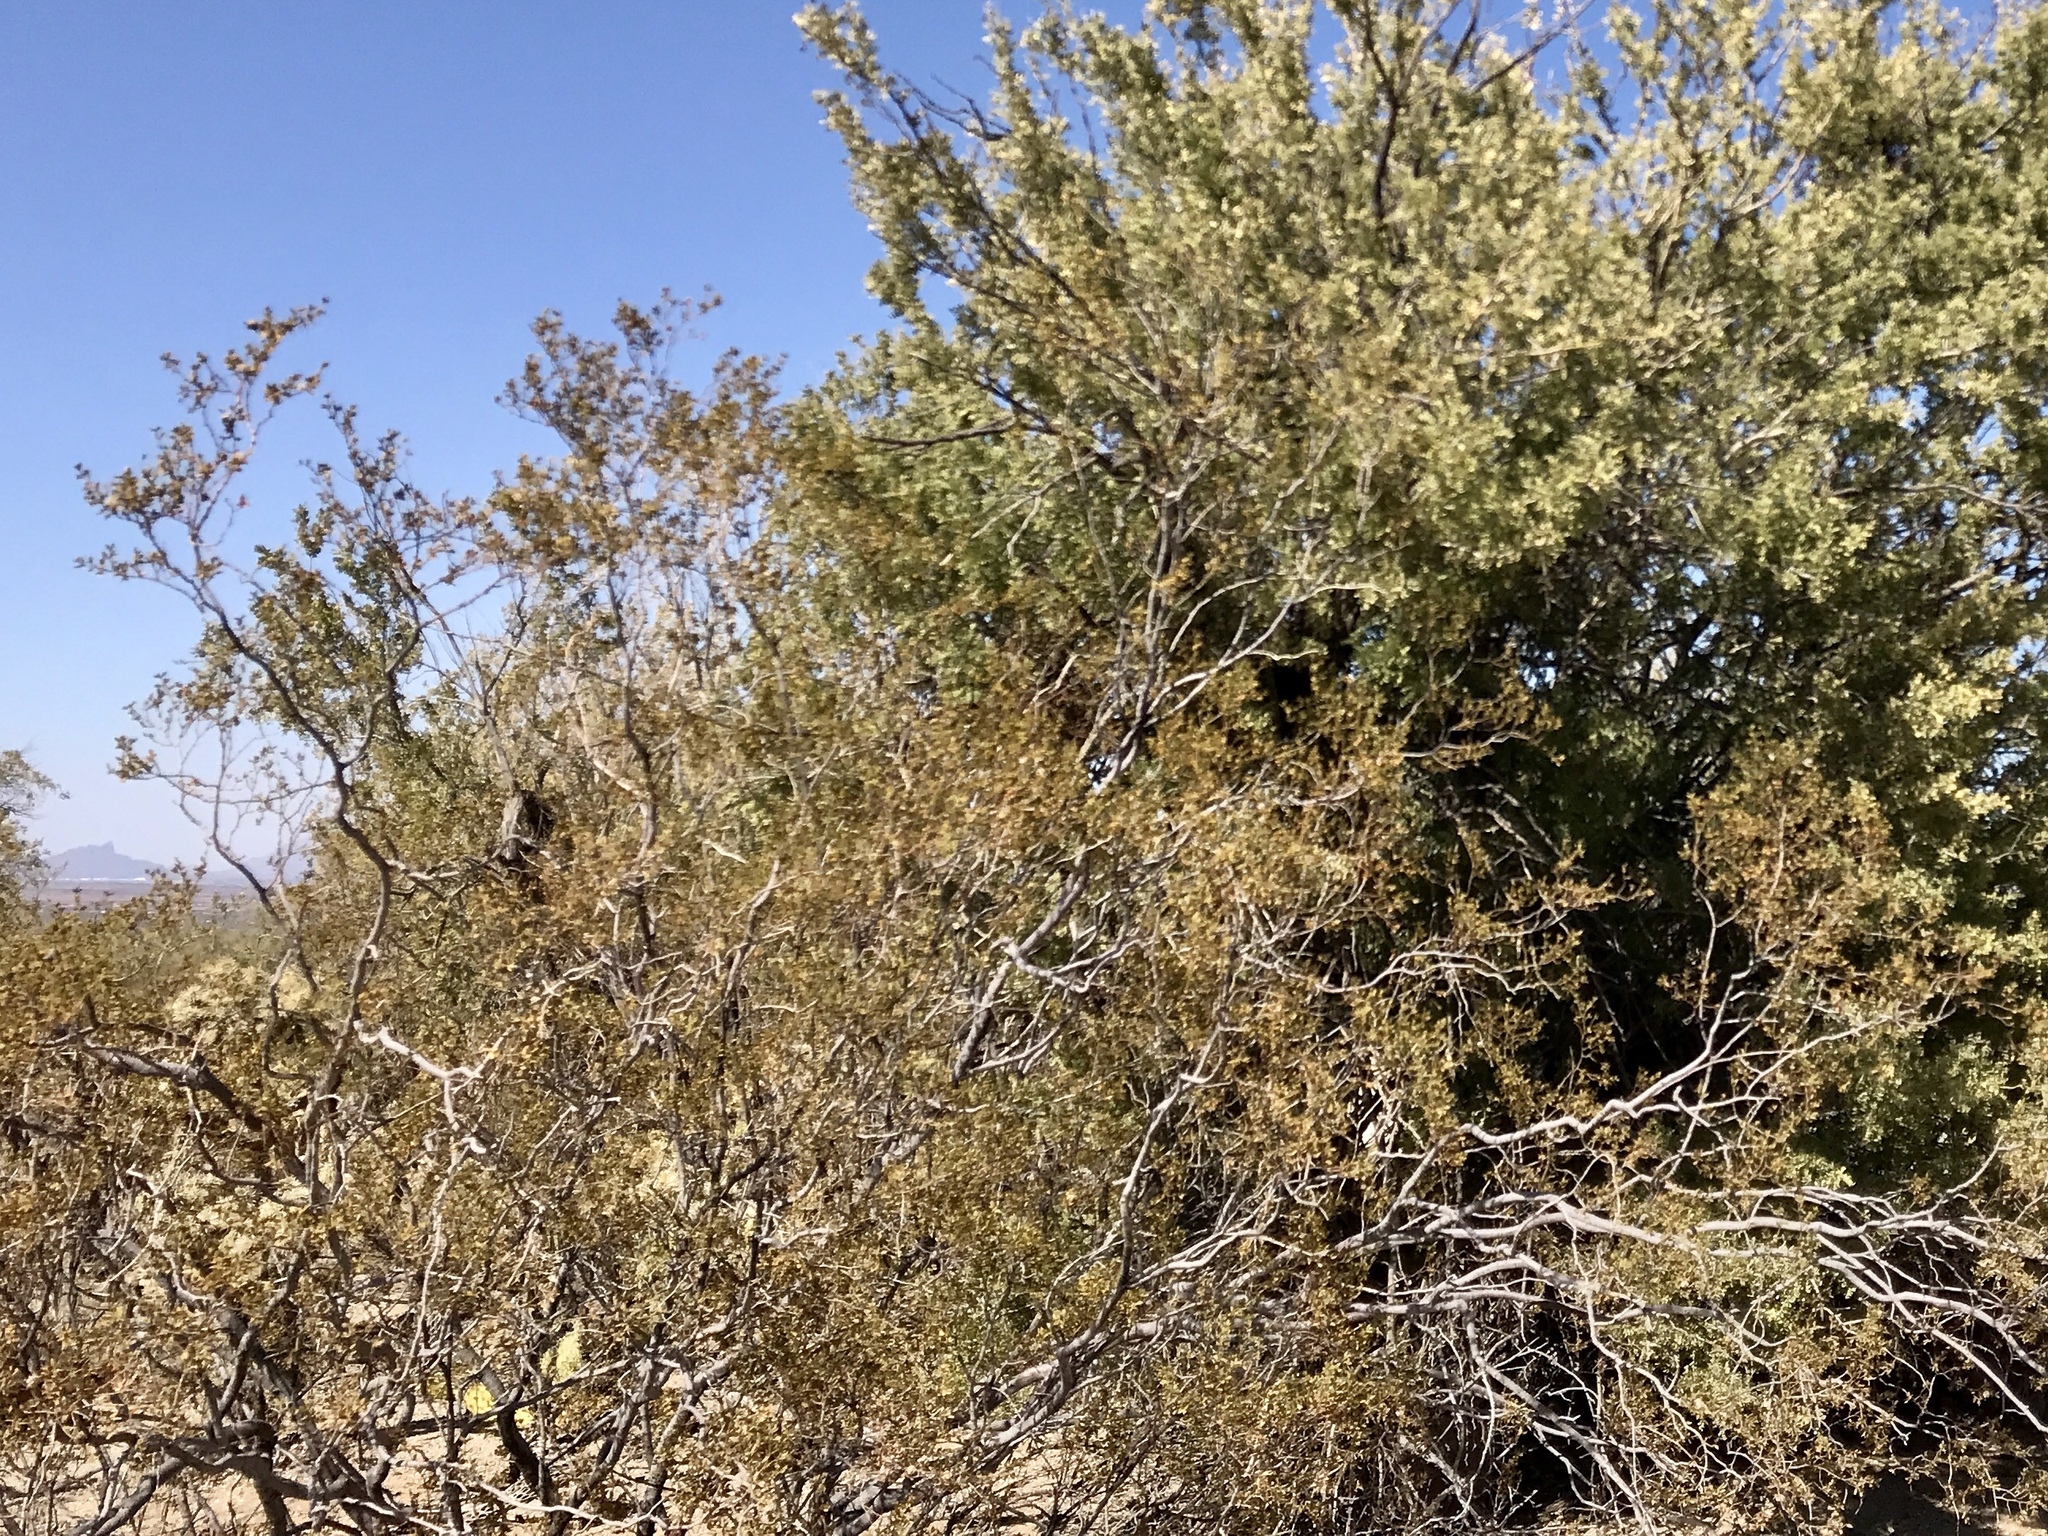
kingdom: Plantae
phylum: Tracheophyta
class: Magnoliopsida
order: Zygophyllales
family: Zygophyllaceae
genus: Larrea
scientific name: Larrea tridentata
